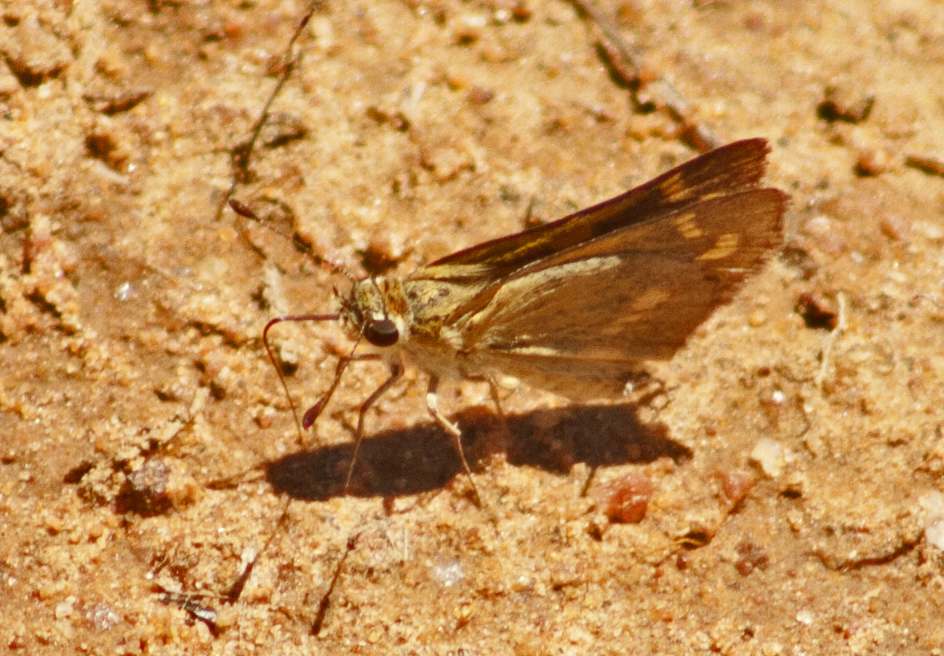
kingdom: Animalia
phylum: Arthropoda
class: Insecta
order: Lepidoptera
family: Hesperiidae
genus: Taractrocera
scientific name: Taractrocera ina
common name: Ina grass-dart
